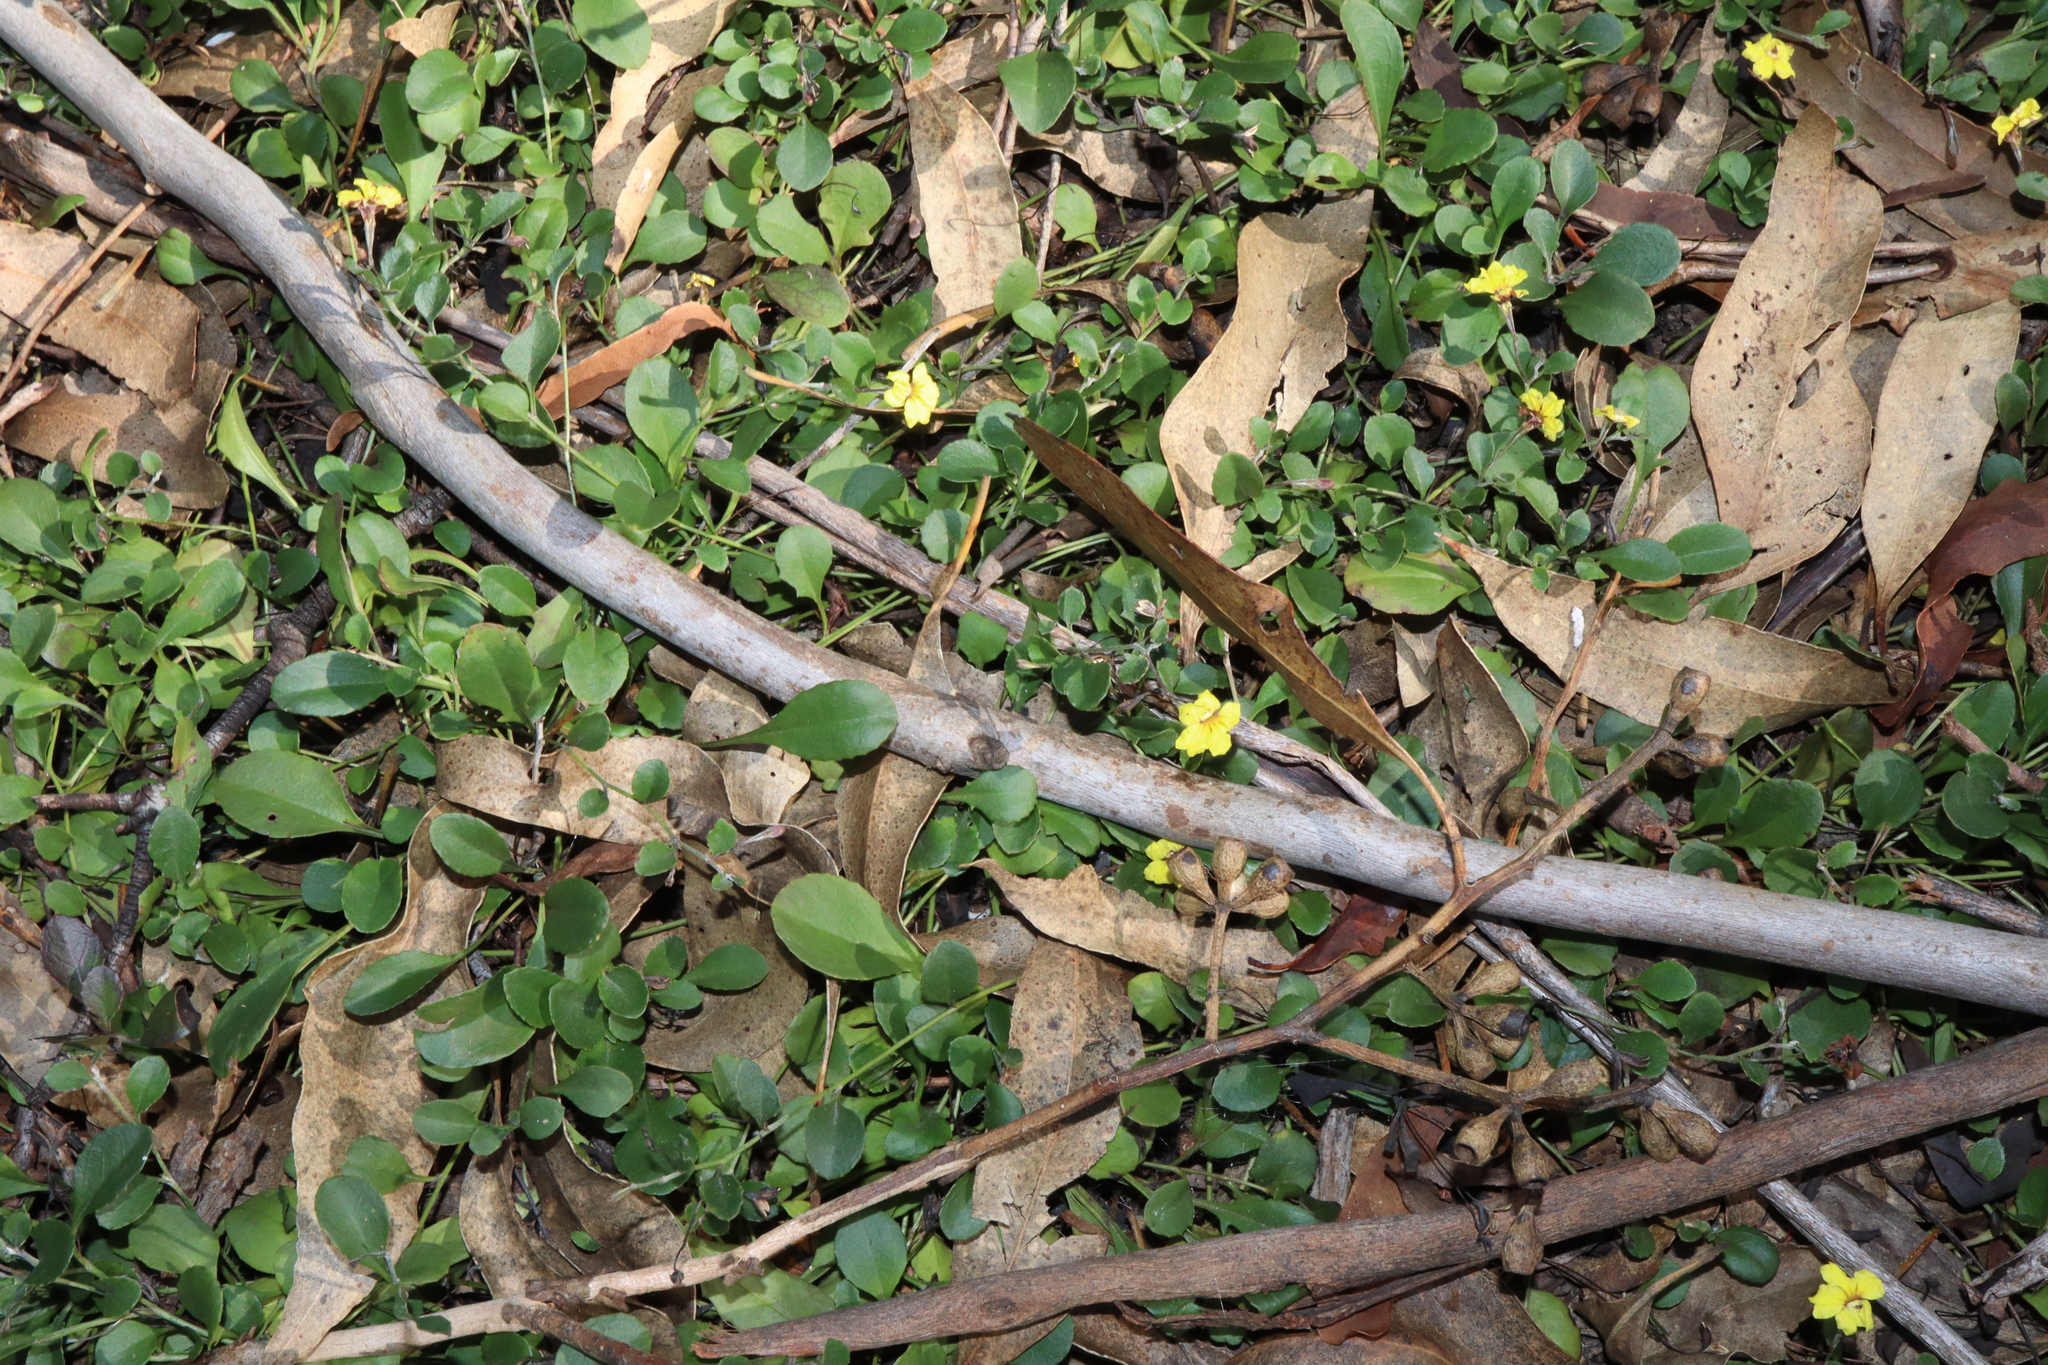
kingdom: Plantae
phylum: Tracheophyta
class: Magnoliopsida
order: Asterales
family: Goodeniaceae
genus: Goodenia
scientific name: Goodenia hederacea
